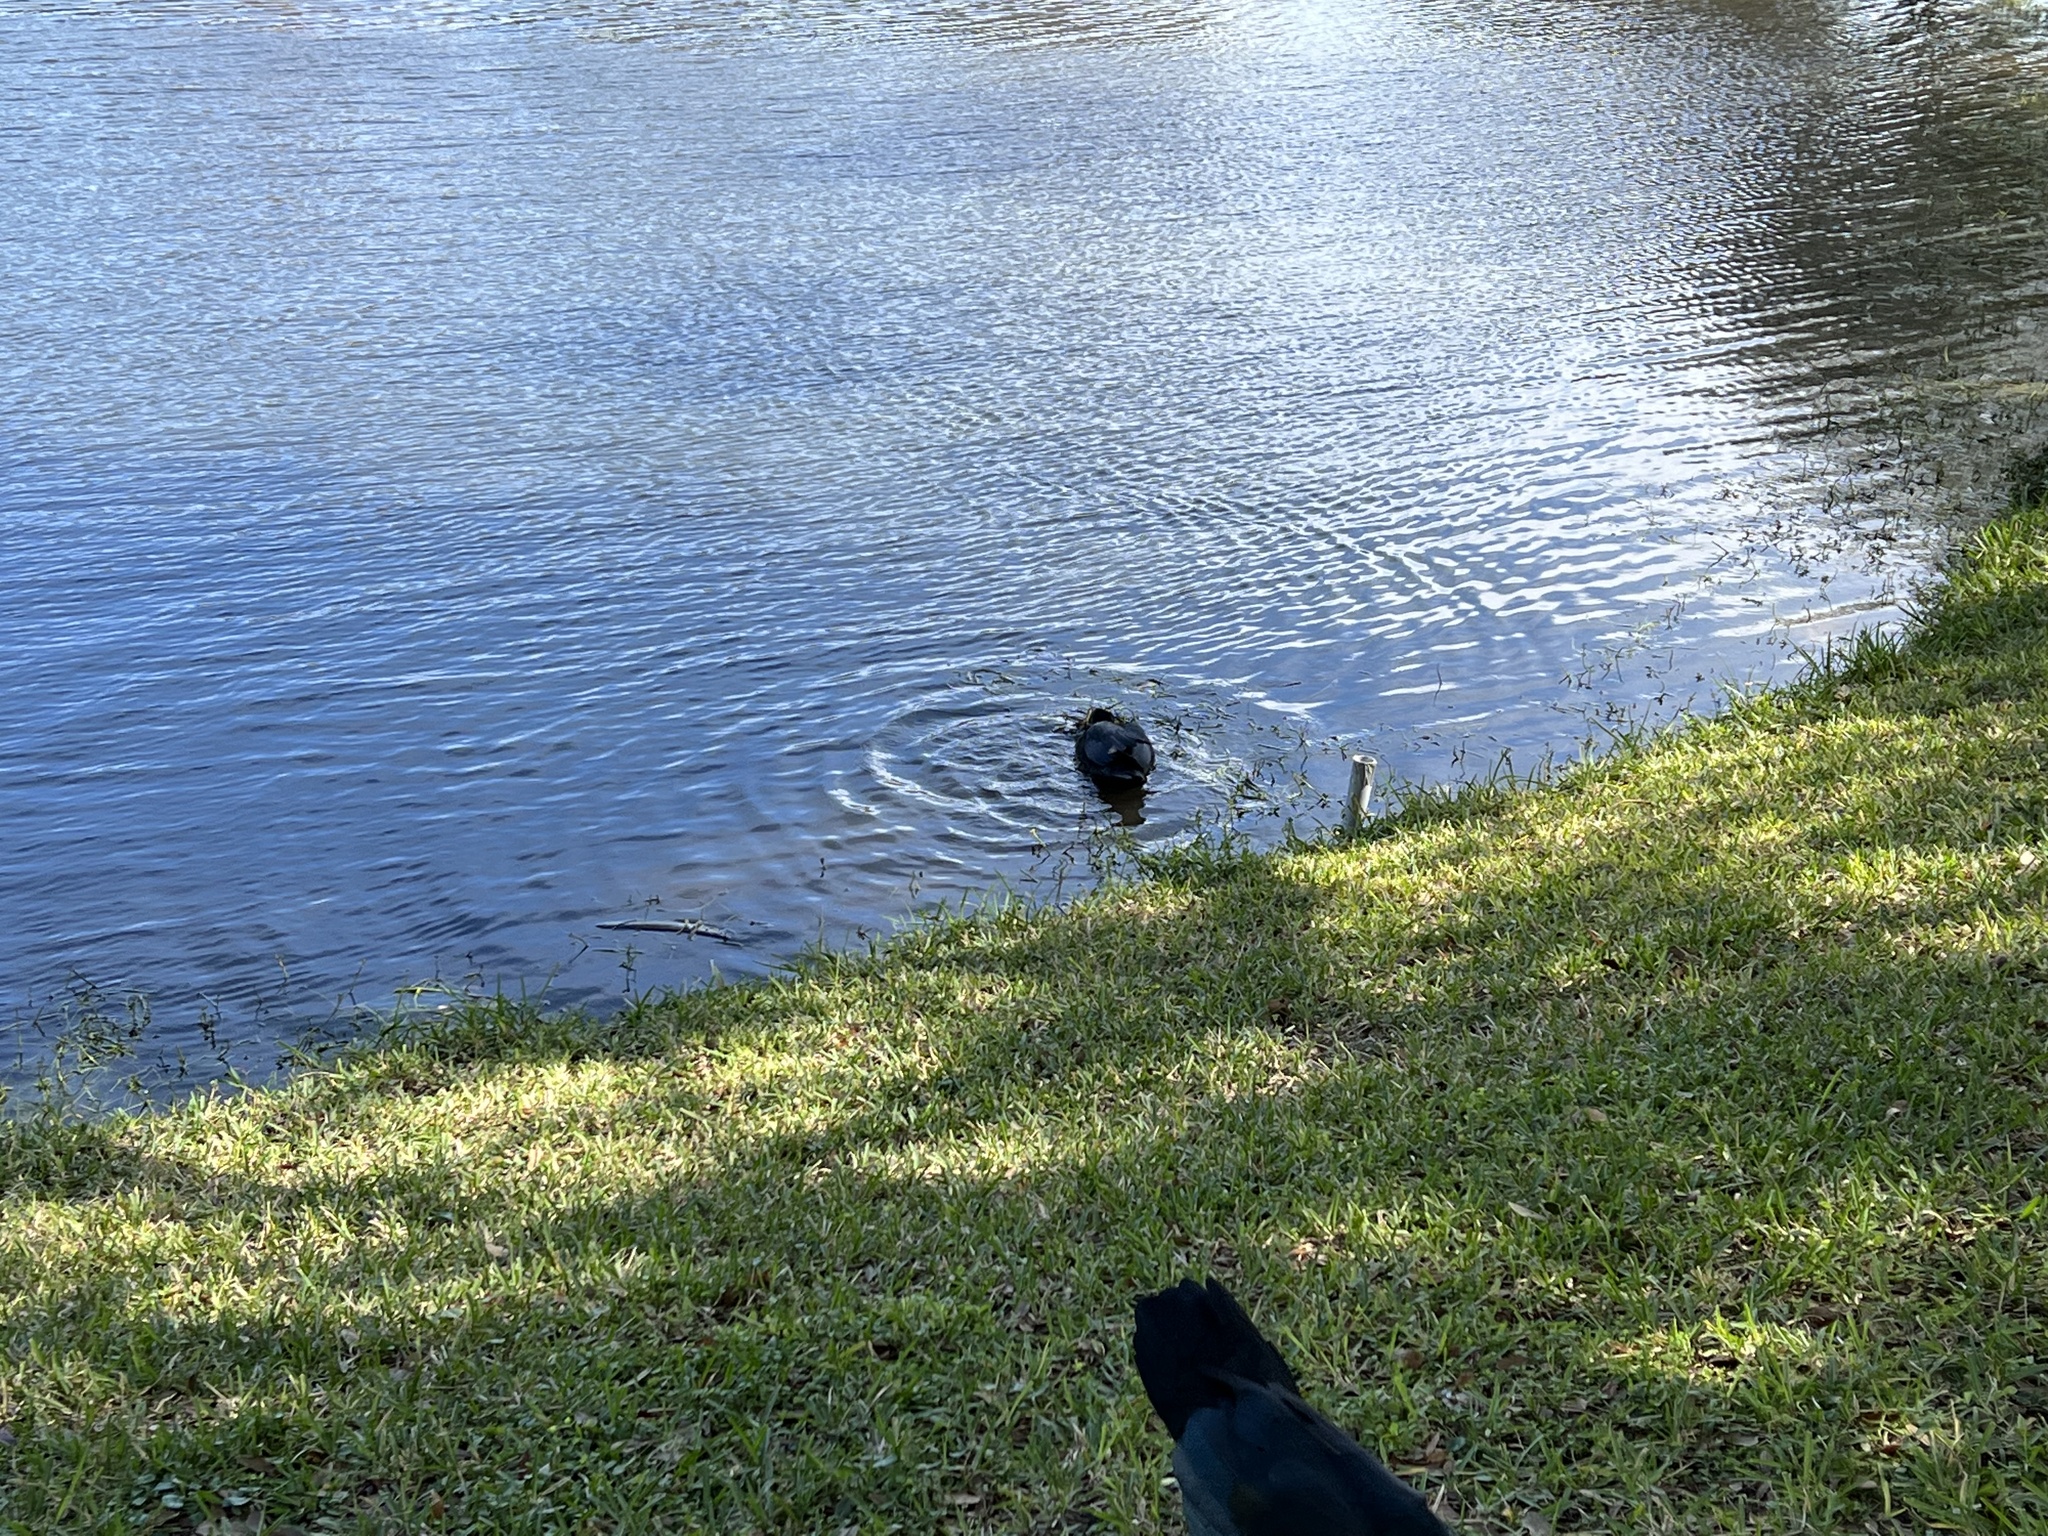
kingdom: Animalia
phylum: Chordata
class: Aves
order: Anseriformes
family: Anatidae
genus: Cairina
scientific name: Cairina moschata
